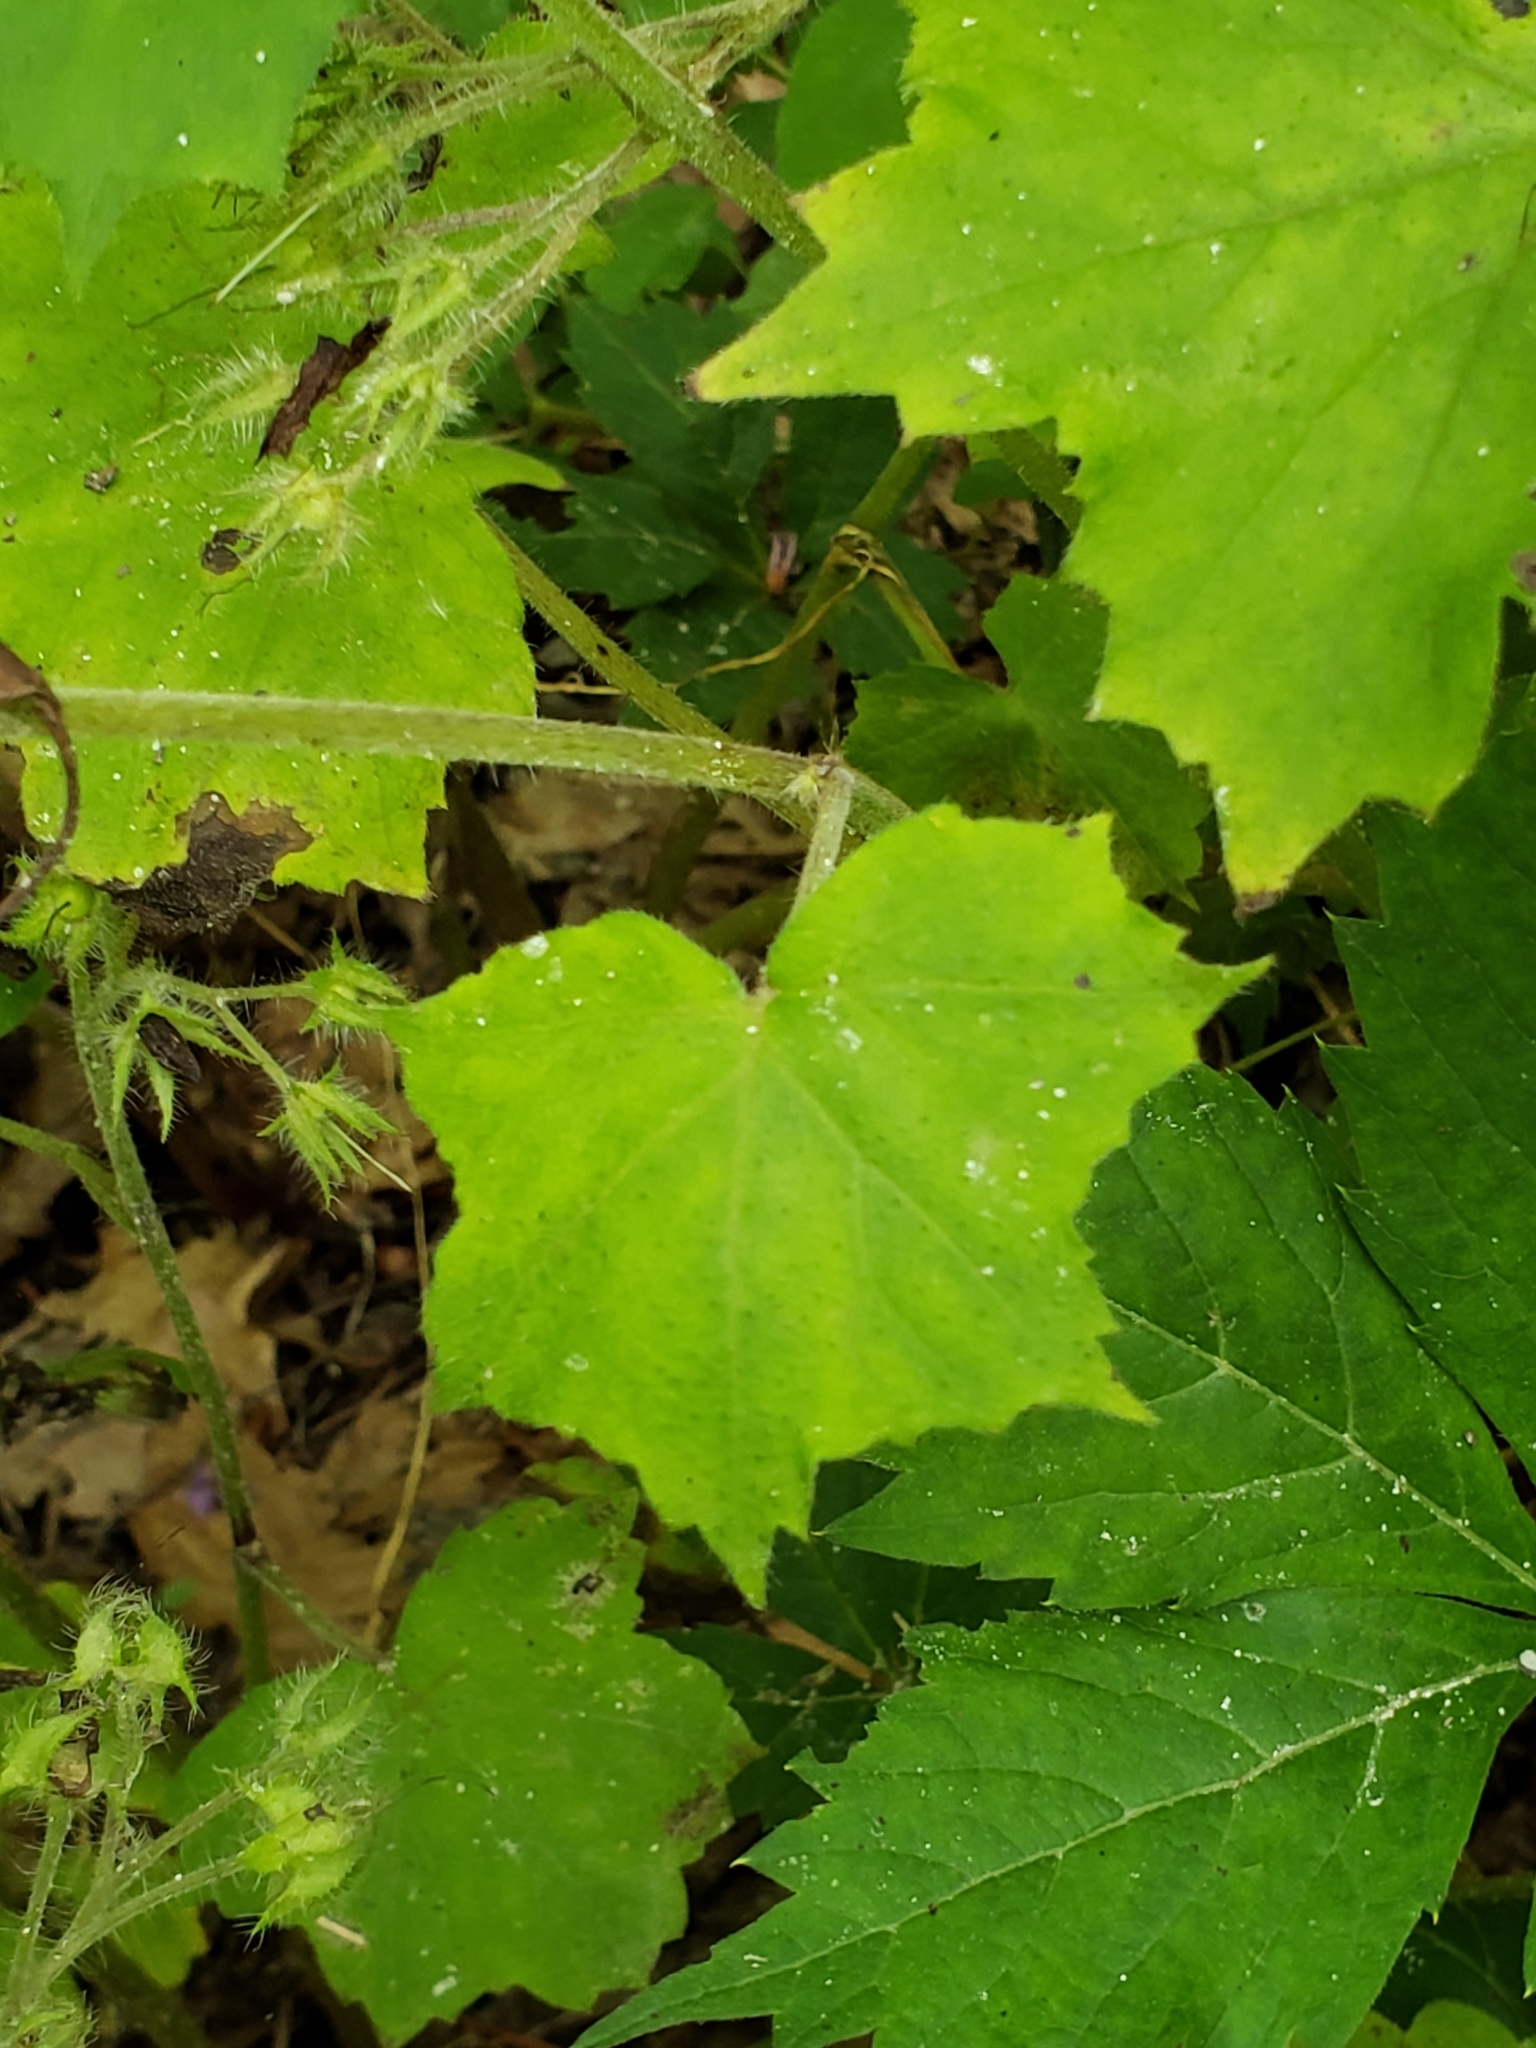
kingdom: Plantae
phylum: Tracheophyta
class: Magnoliopsida
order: Boraginales
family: Hydrophyllaceae
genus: Hydrophyllum
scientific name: Hydrophyllum appendiculatum
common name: Appendaged waterleaf
